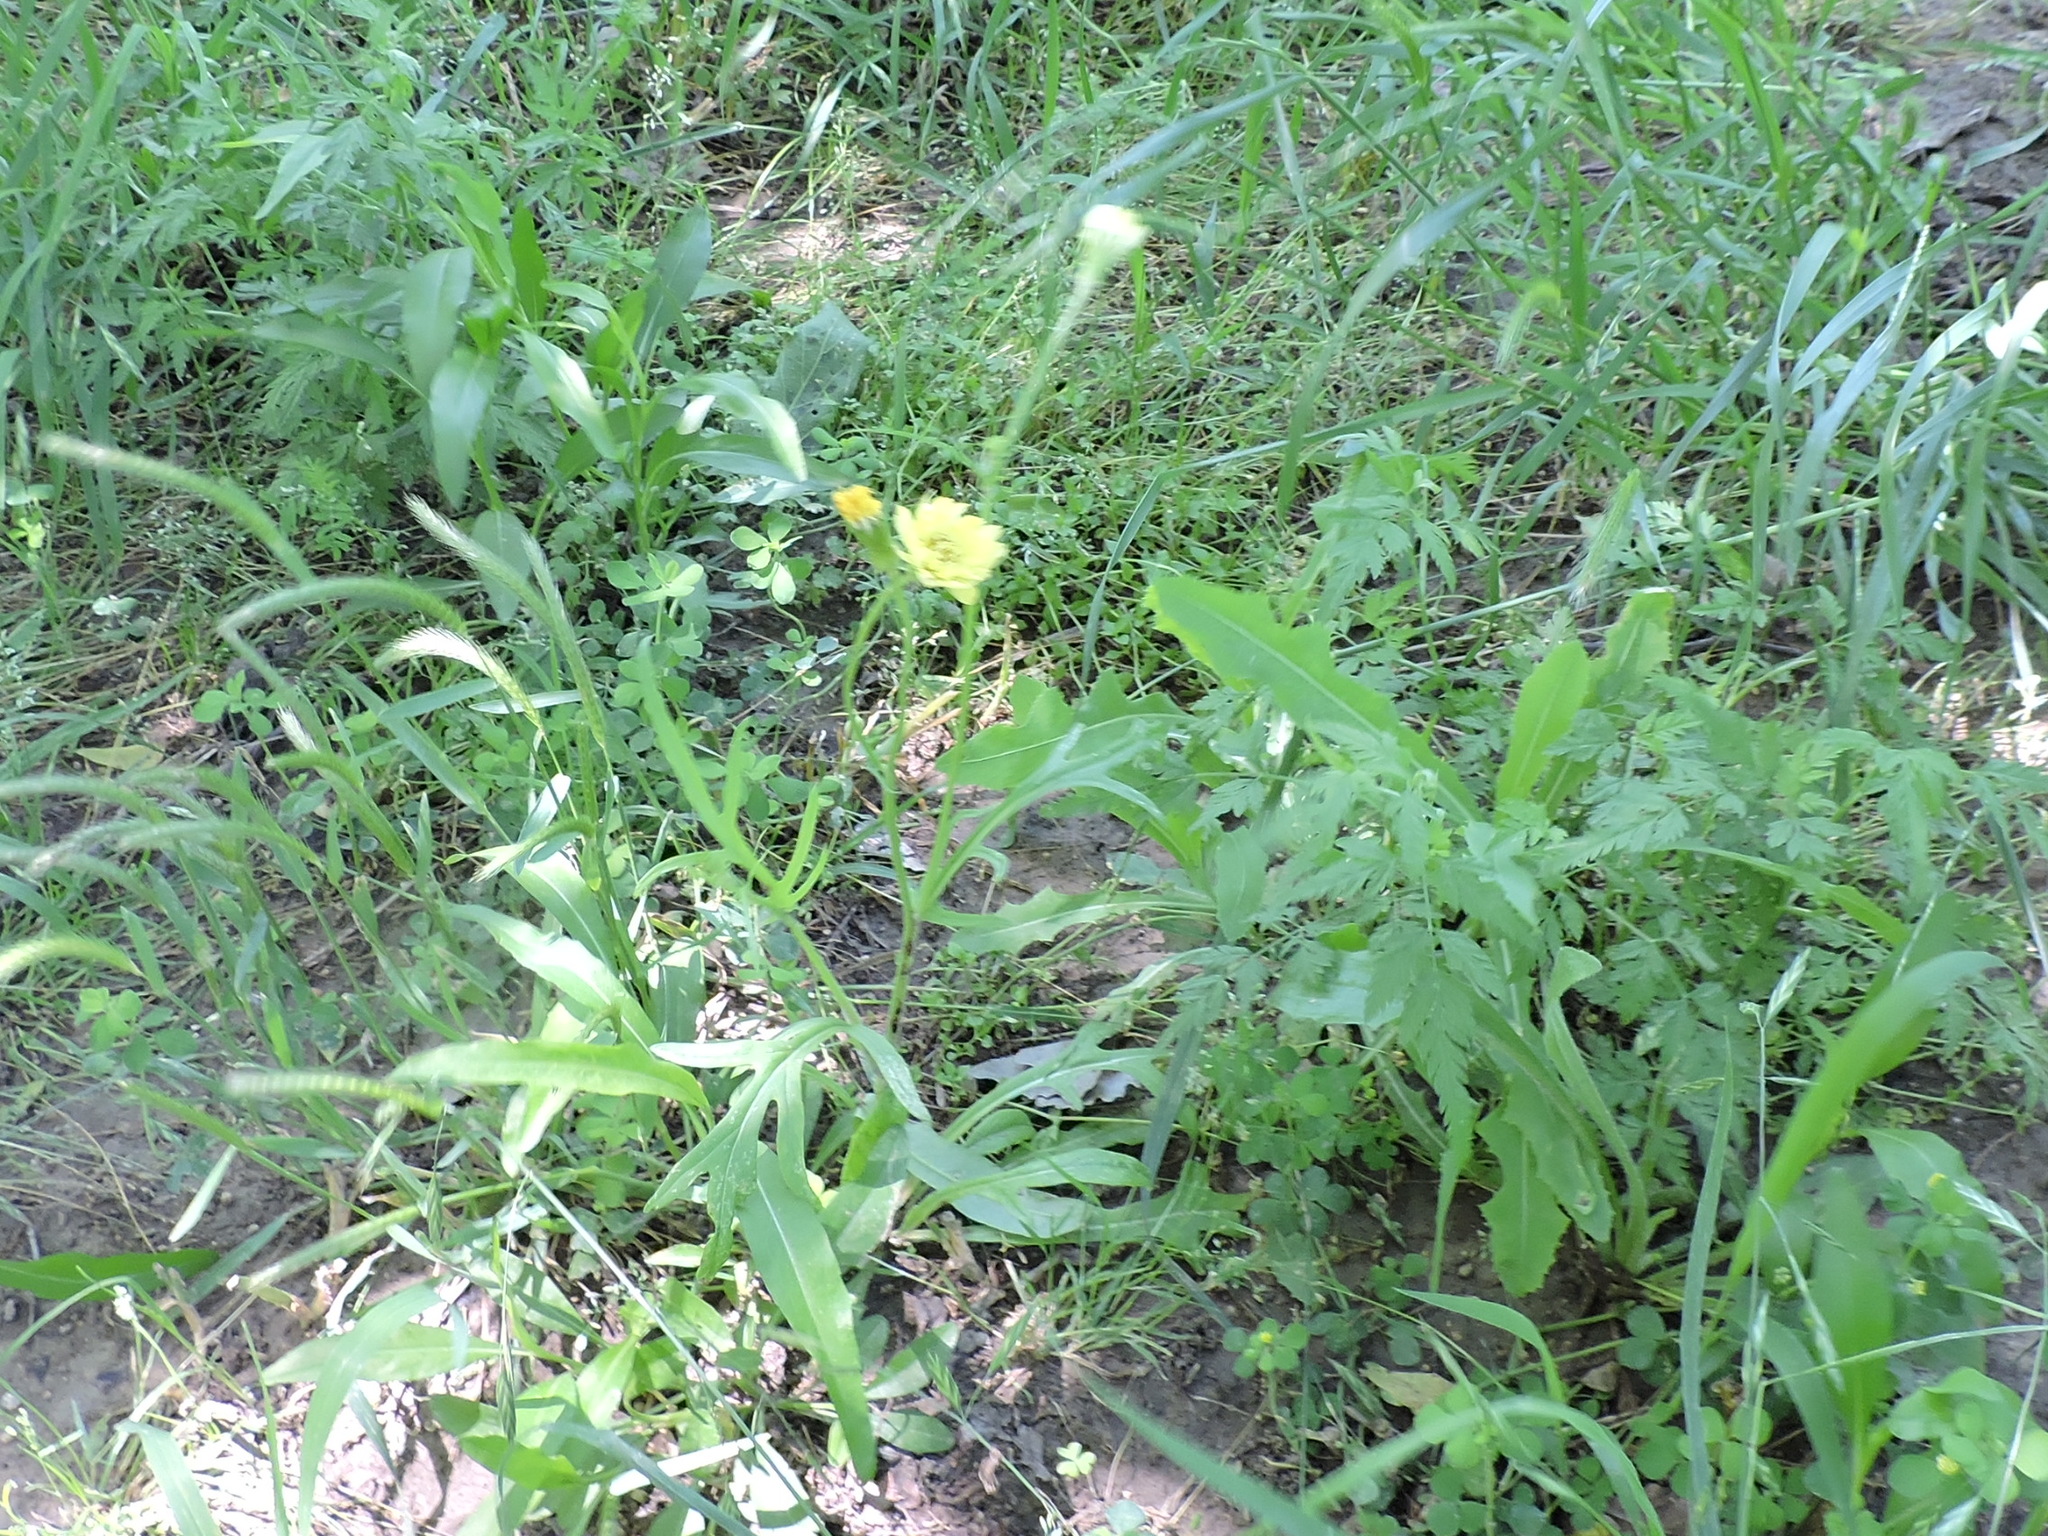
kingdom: Plantae
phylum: Tracheophyta
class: Magnoliopsida
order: Asterales
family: Asteraceae
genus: Pyrrhopappus
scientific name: Pyrrhopappus pauciflorus
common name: Texas false dandelion
